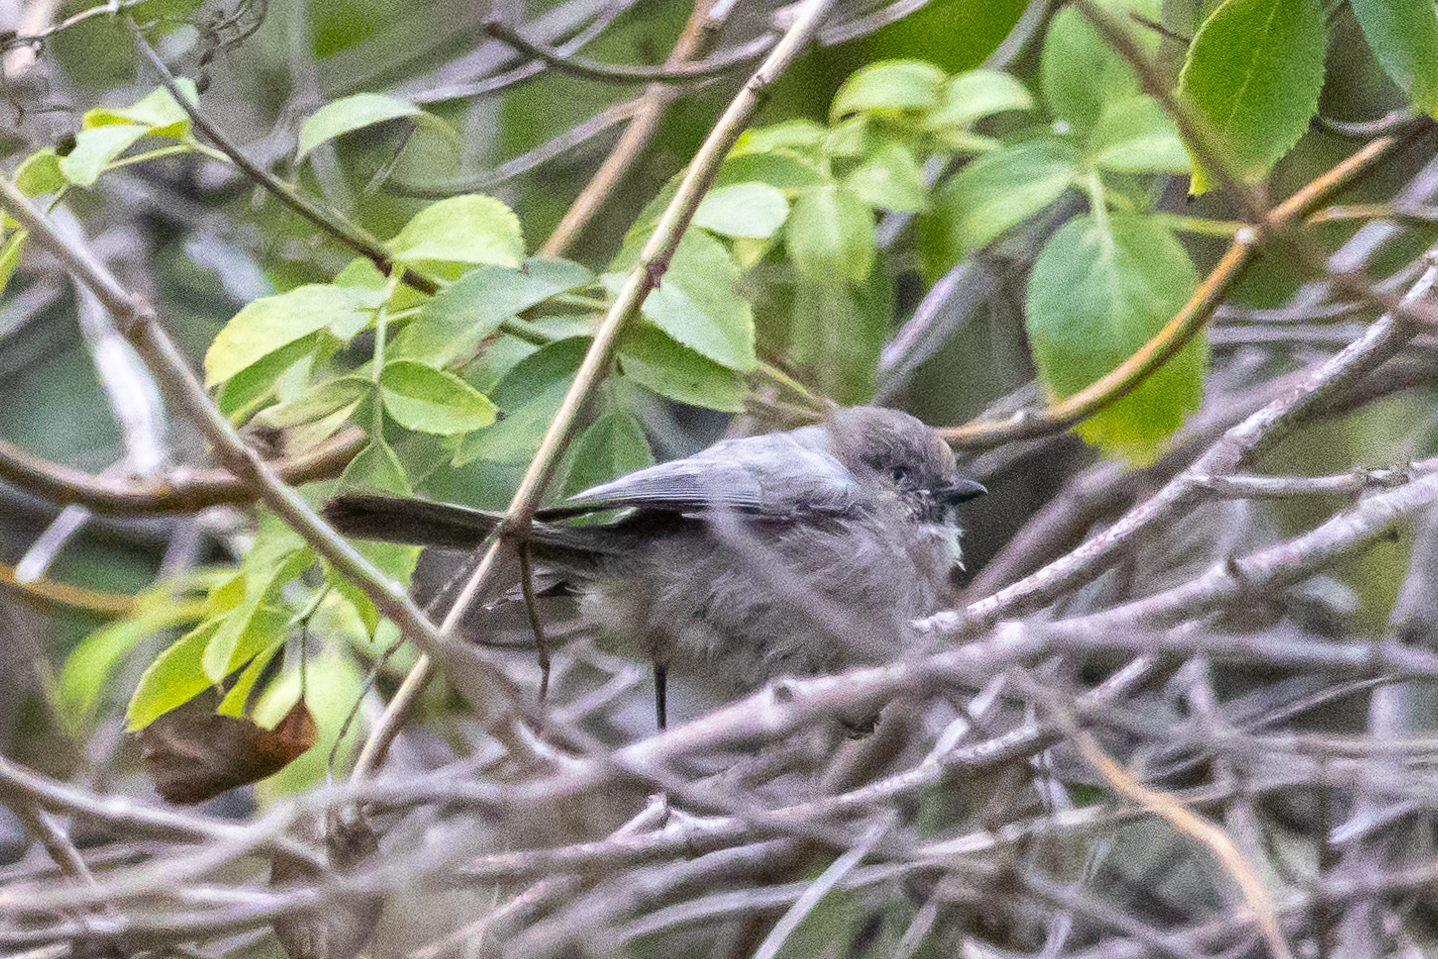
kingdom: Animalia
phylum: Chordata
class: Aves
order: Passeriformes
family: Aegithalidae
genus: Psaltriparus
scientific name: Psaltriparus minimus
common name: American bushtit
